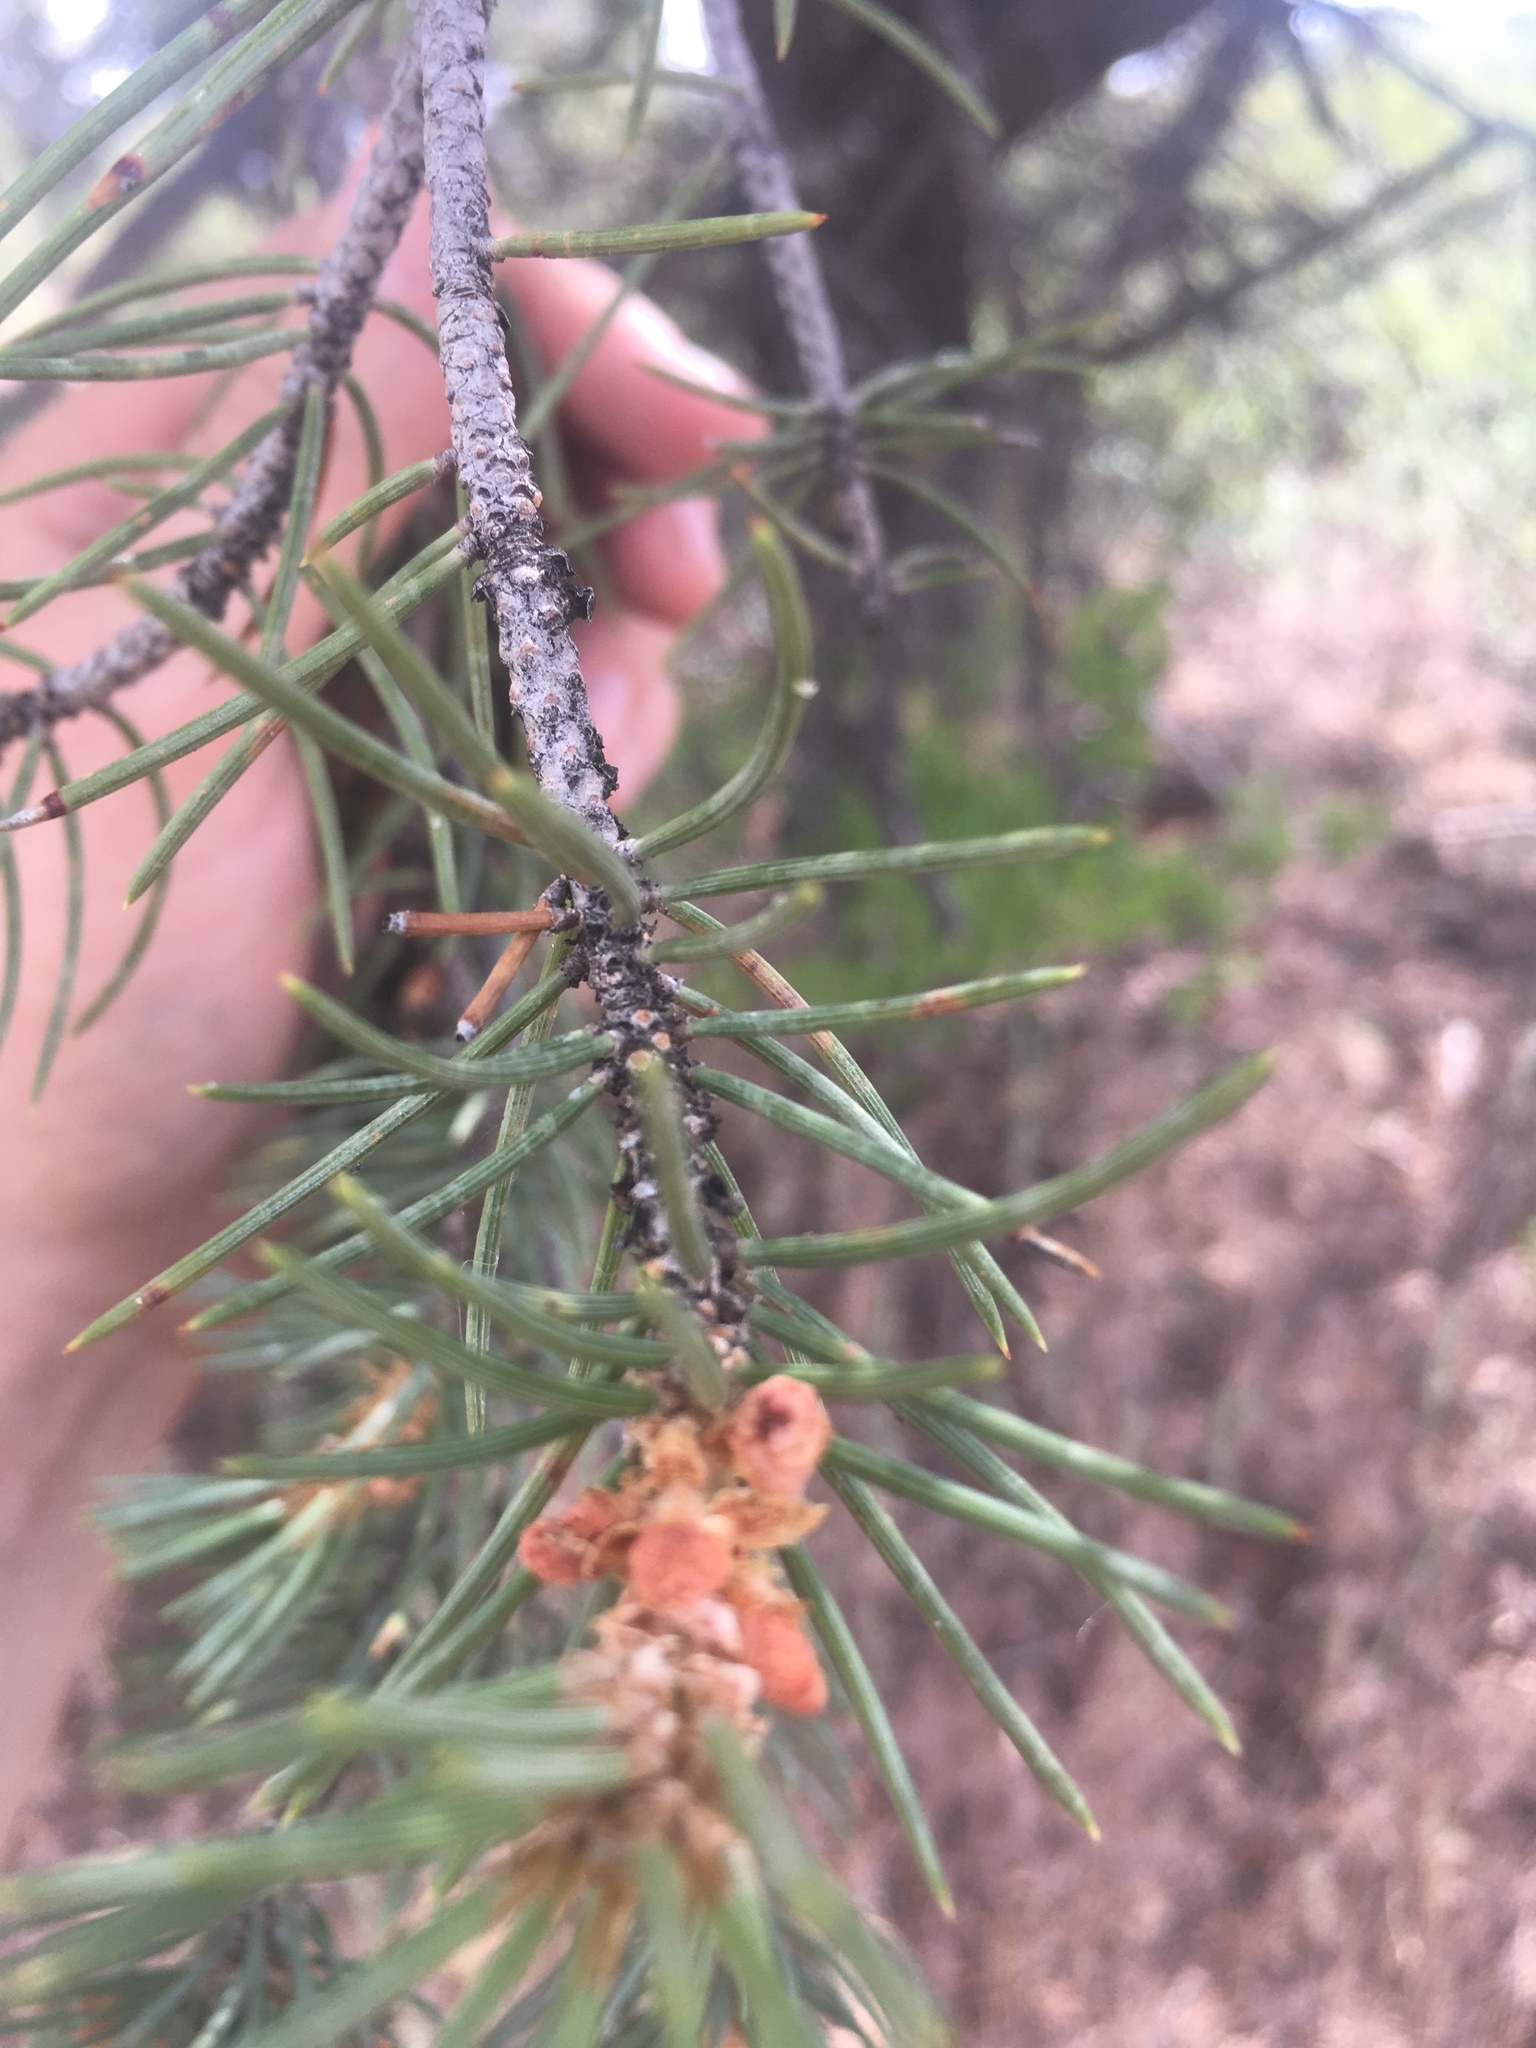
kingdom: Plantae
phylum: Tracheophyta
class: Pinopsida
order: Pinales
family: Pinaceae
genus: Pinus
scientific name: Pinus monophylla
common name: One-leaved nut pine
